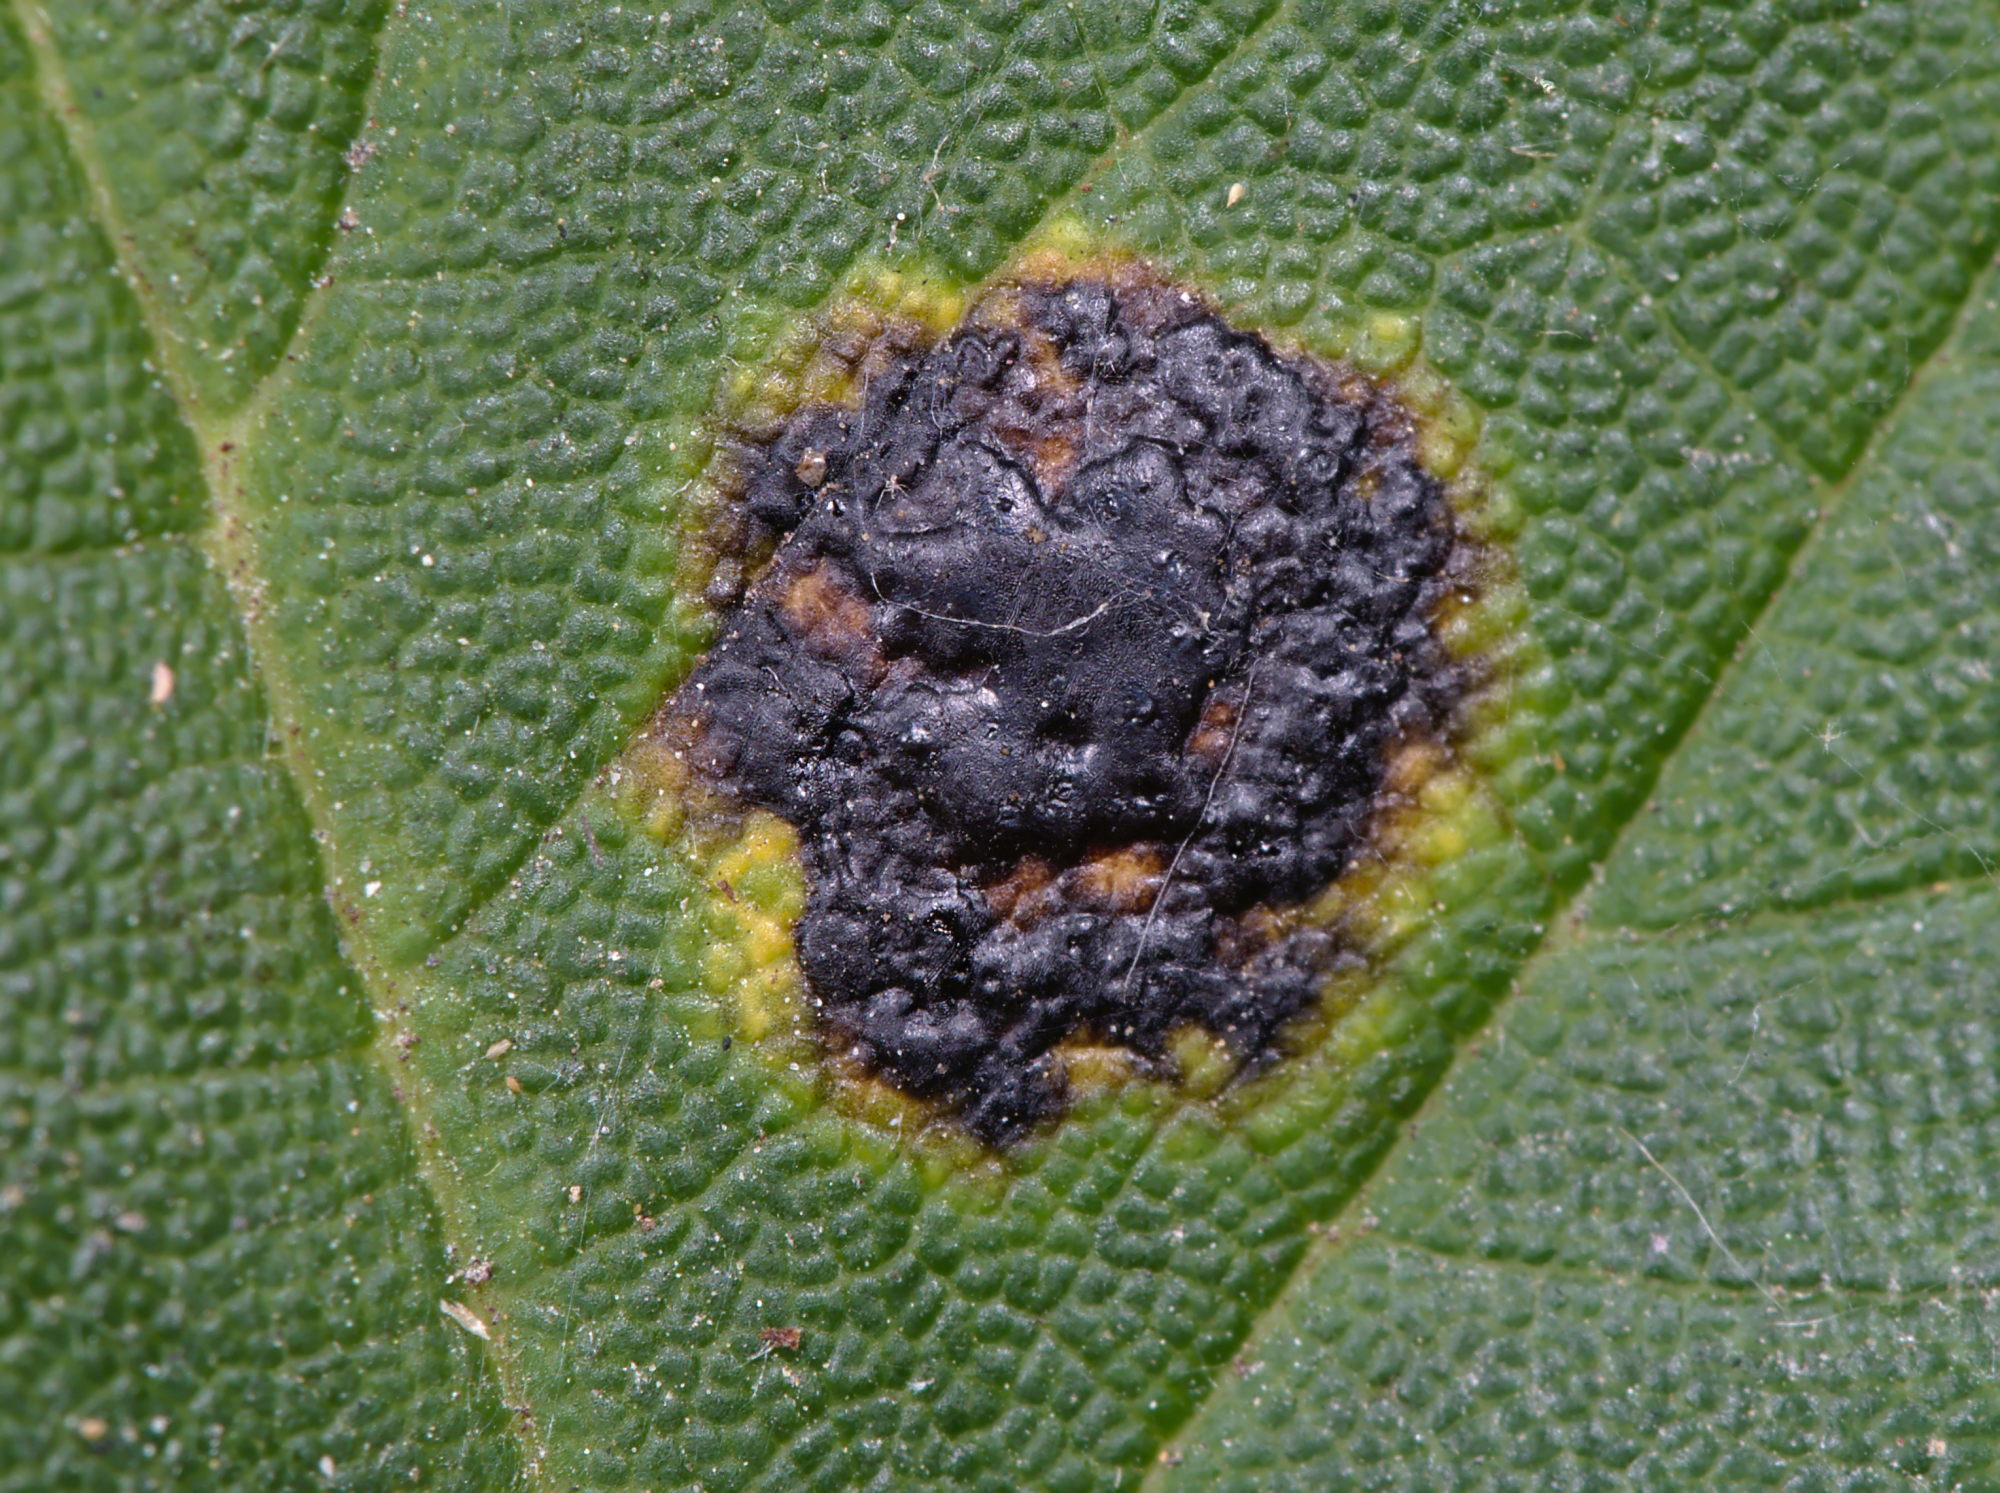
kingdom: Fungi
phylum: Ascomycota
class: Leotiomycetes
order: Rhytismatales
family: Rhytismataceae
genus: Rhytisma
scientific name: Rhytisma acerinum
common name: European tar spot
